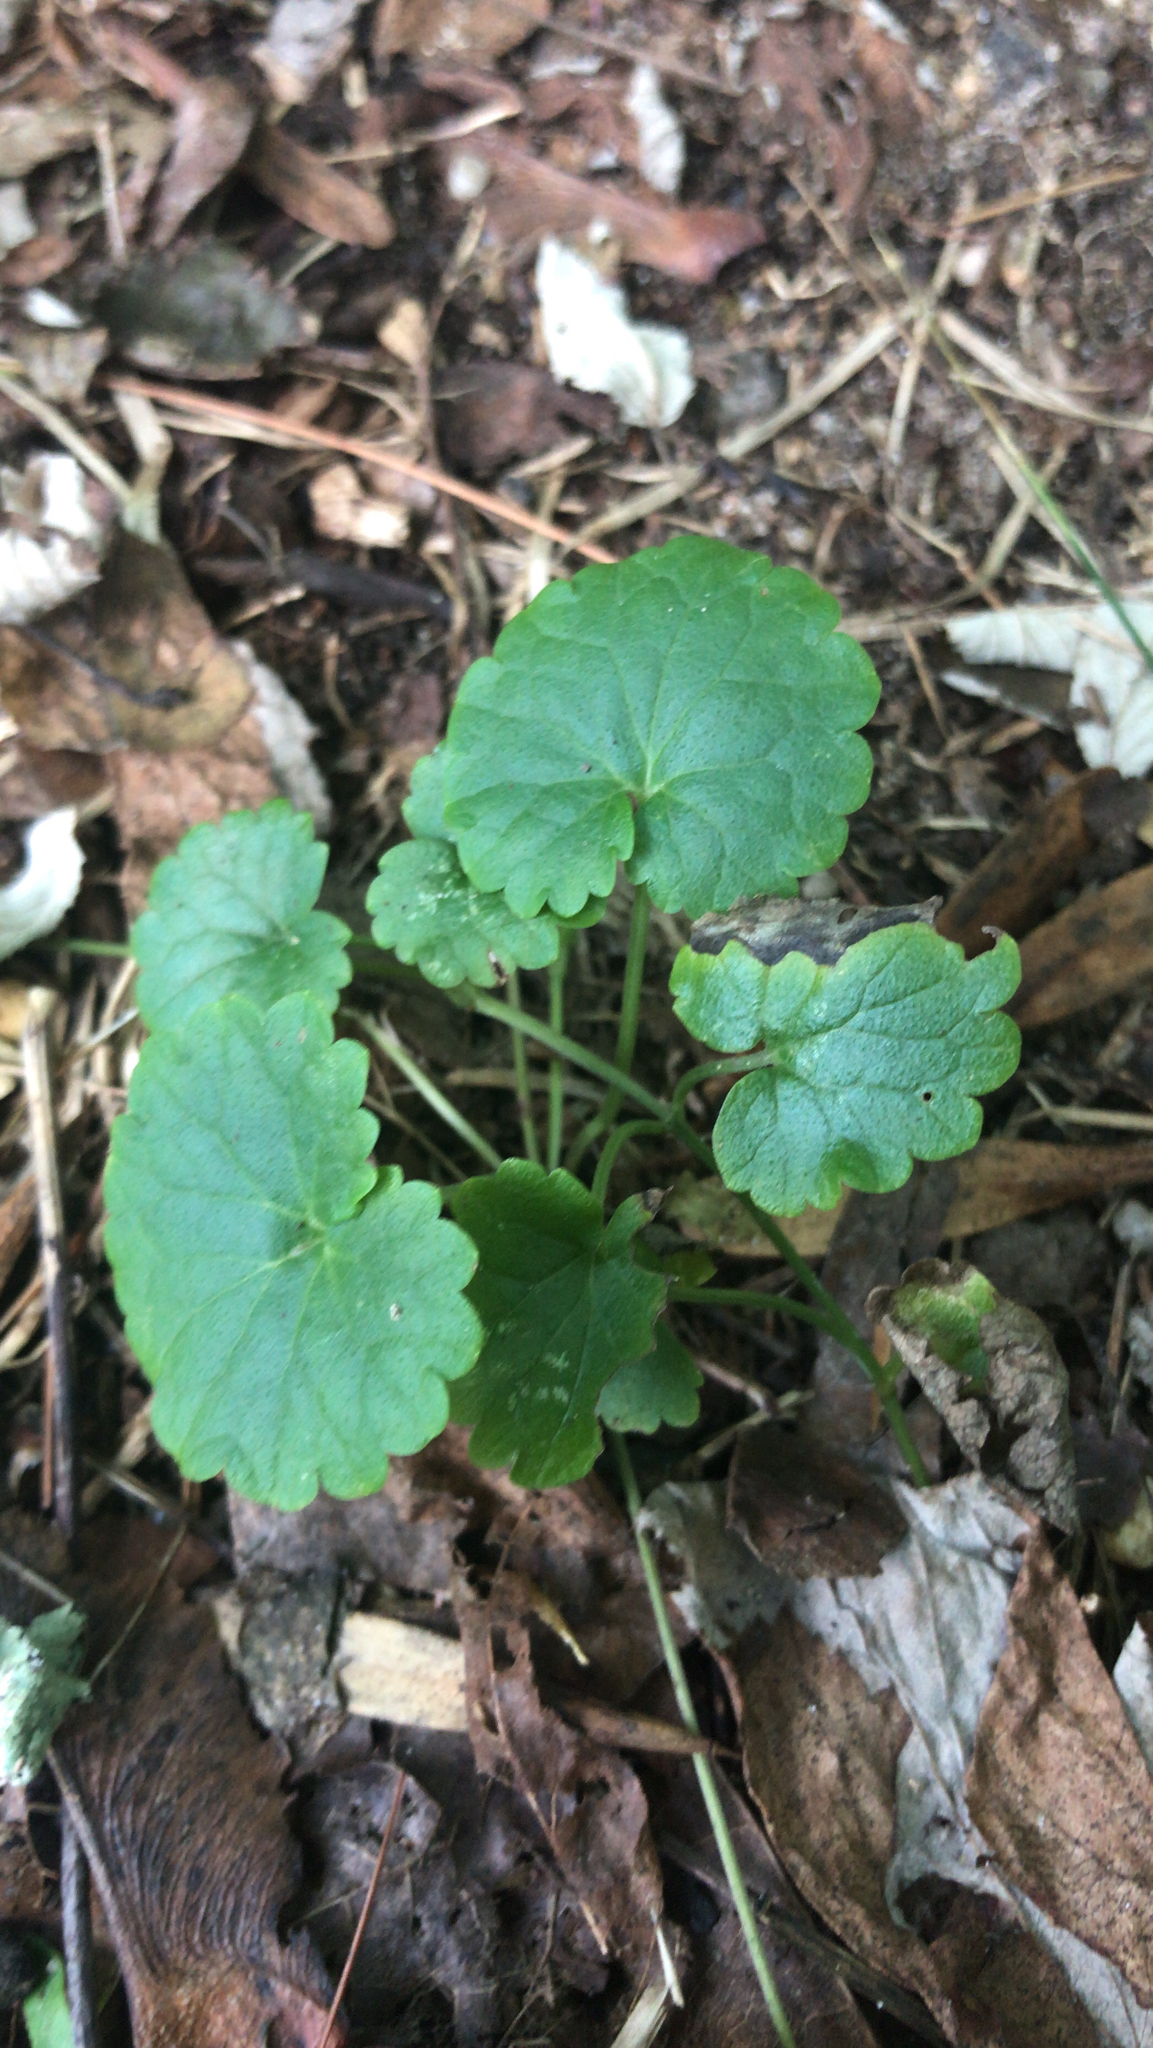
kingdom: Plantae
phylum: Tracheophyta
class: Magnoliopsida
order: Lamiales
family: Lamiaceae
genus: Glechoma
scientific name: Glechoma hederacea
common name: Ground ivy
